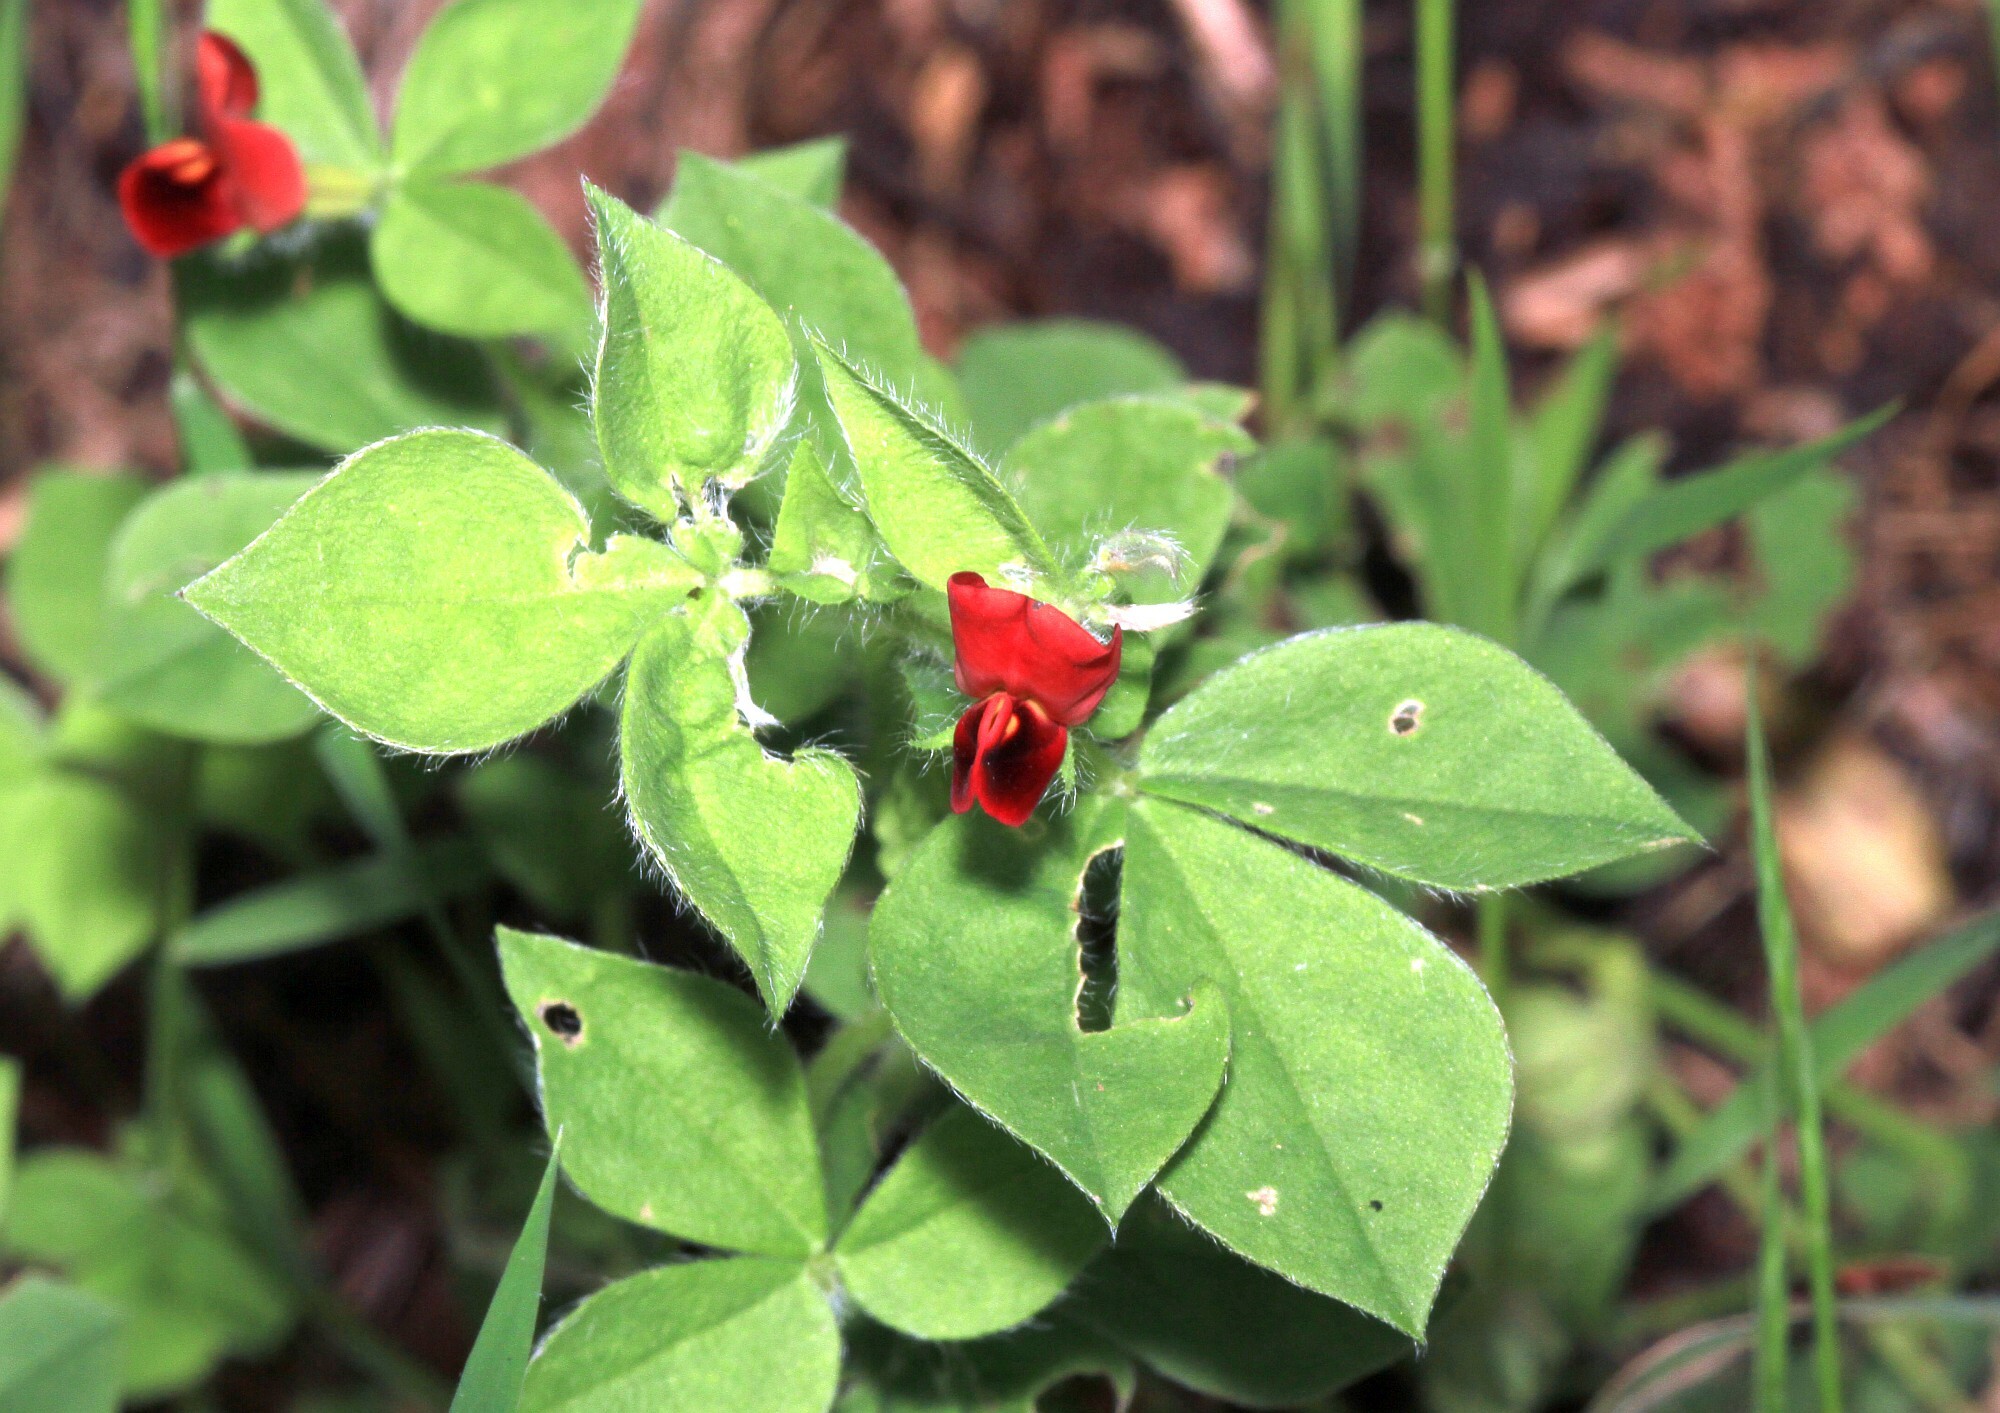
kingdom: Plantae
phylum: Tracheophyta
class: Magnoliopsida
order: Fabales
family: Fabaceae
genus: Lotus
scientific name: Lotus tetragonolobus
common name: Asparagus-pea
